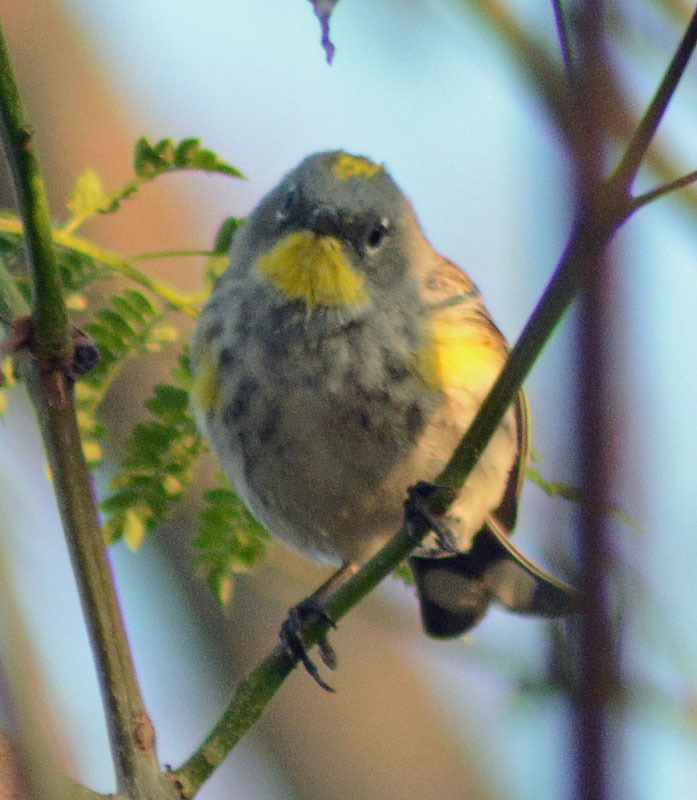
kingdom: Animalia
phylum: Chordata
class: Aves
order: Passeriformes
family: Parulidae
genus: Setophaga
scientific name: Setophaga coronata
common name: Myrtle warbler
